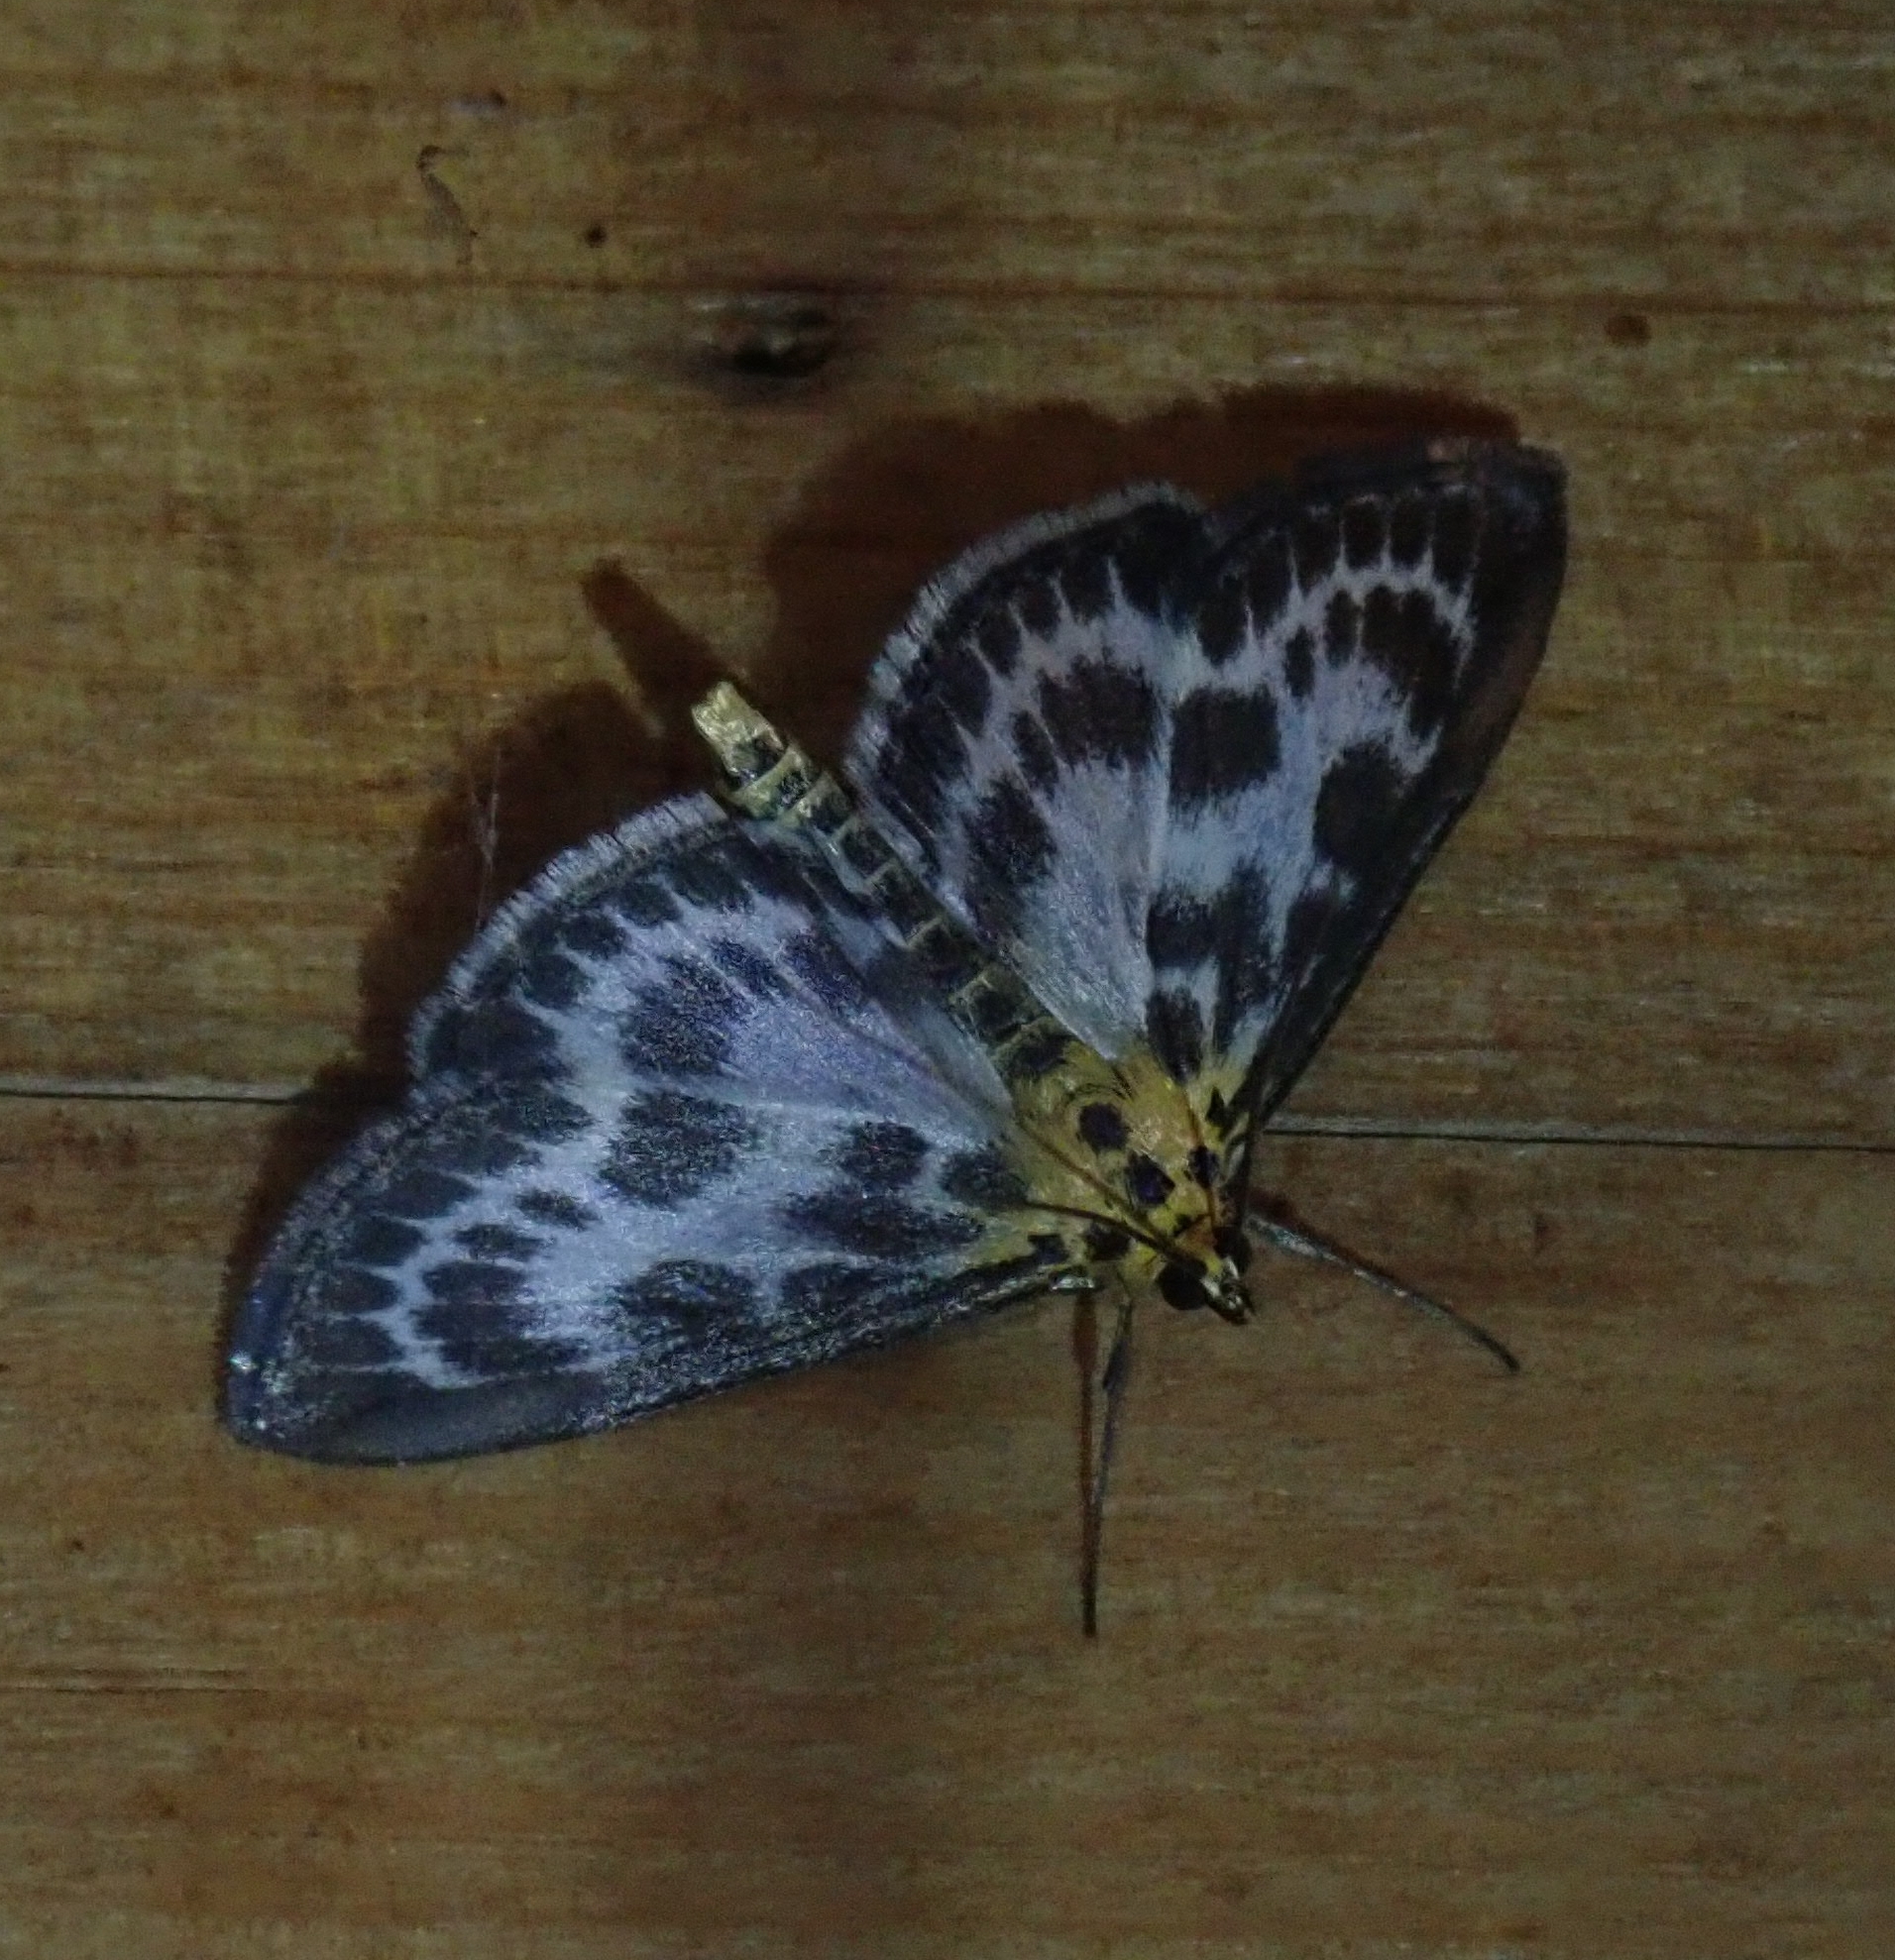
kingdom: Animalia
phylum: Arthropoda
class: Insecta
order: Lepidoptera
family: Crambidae
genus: Anania
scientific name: Anania hortulata
